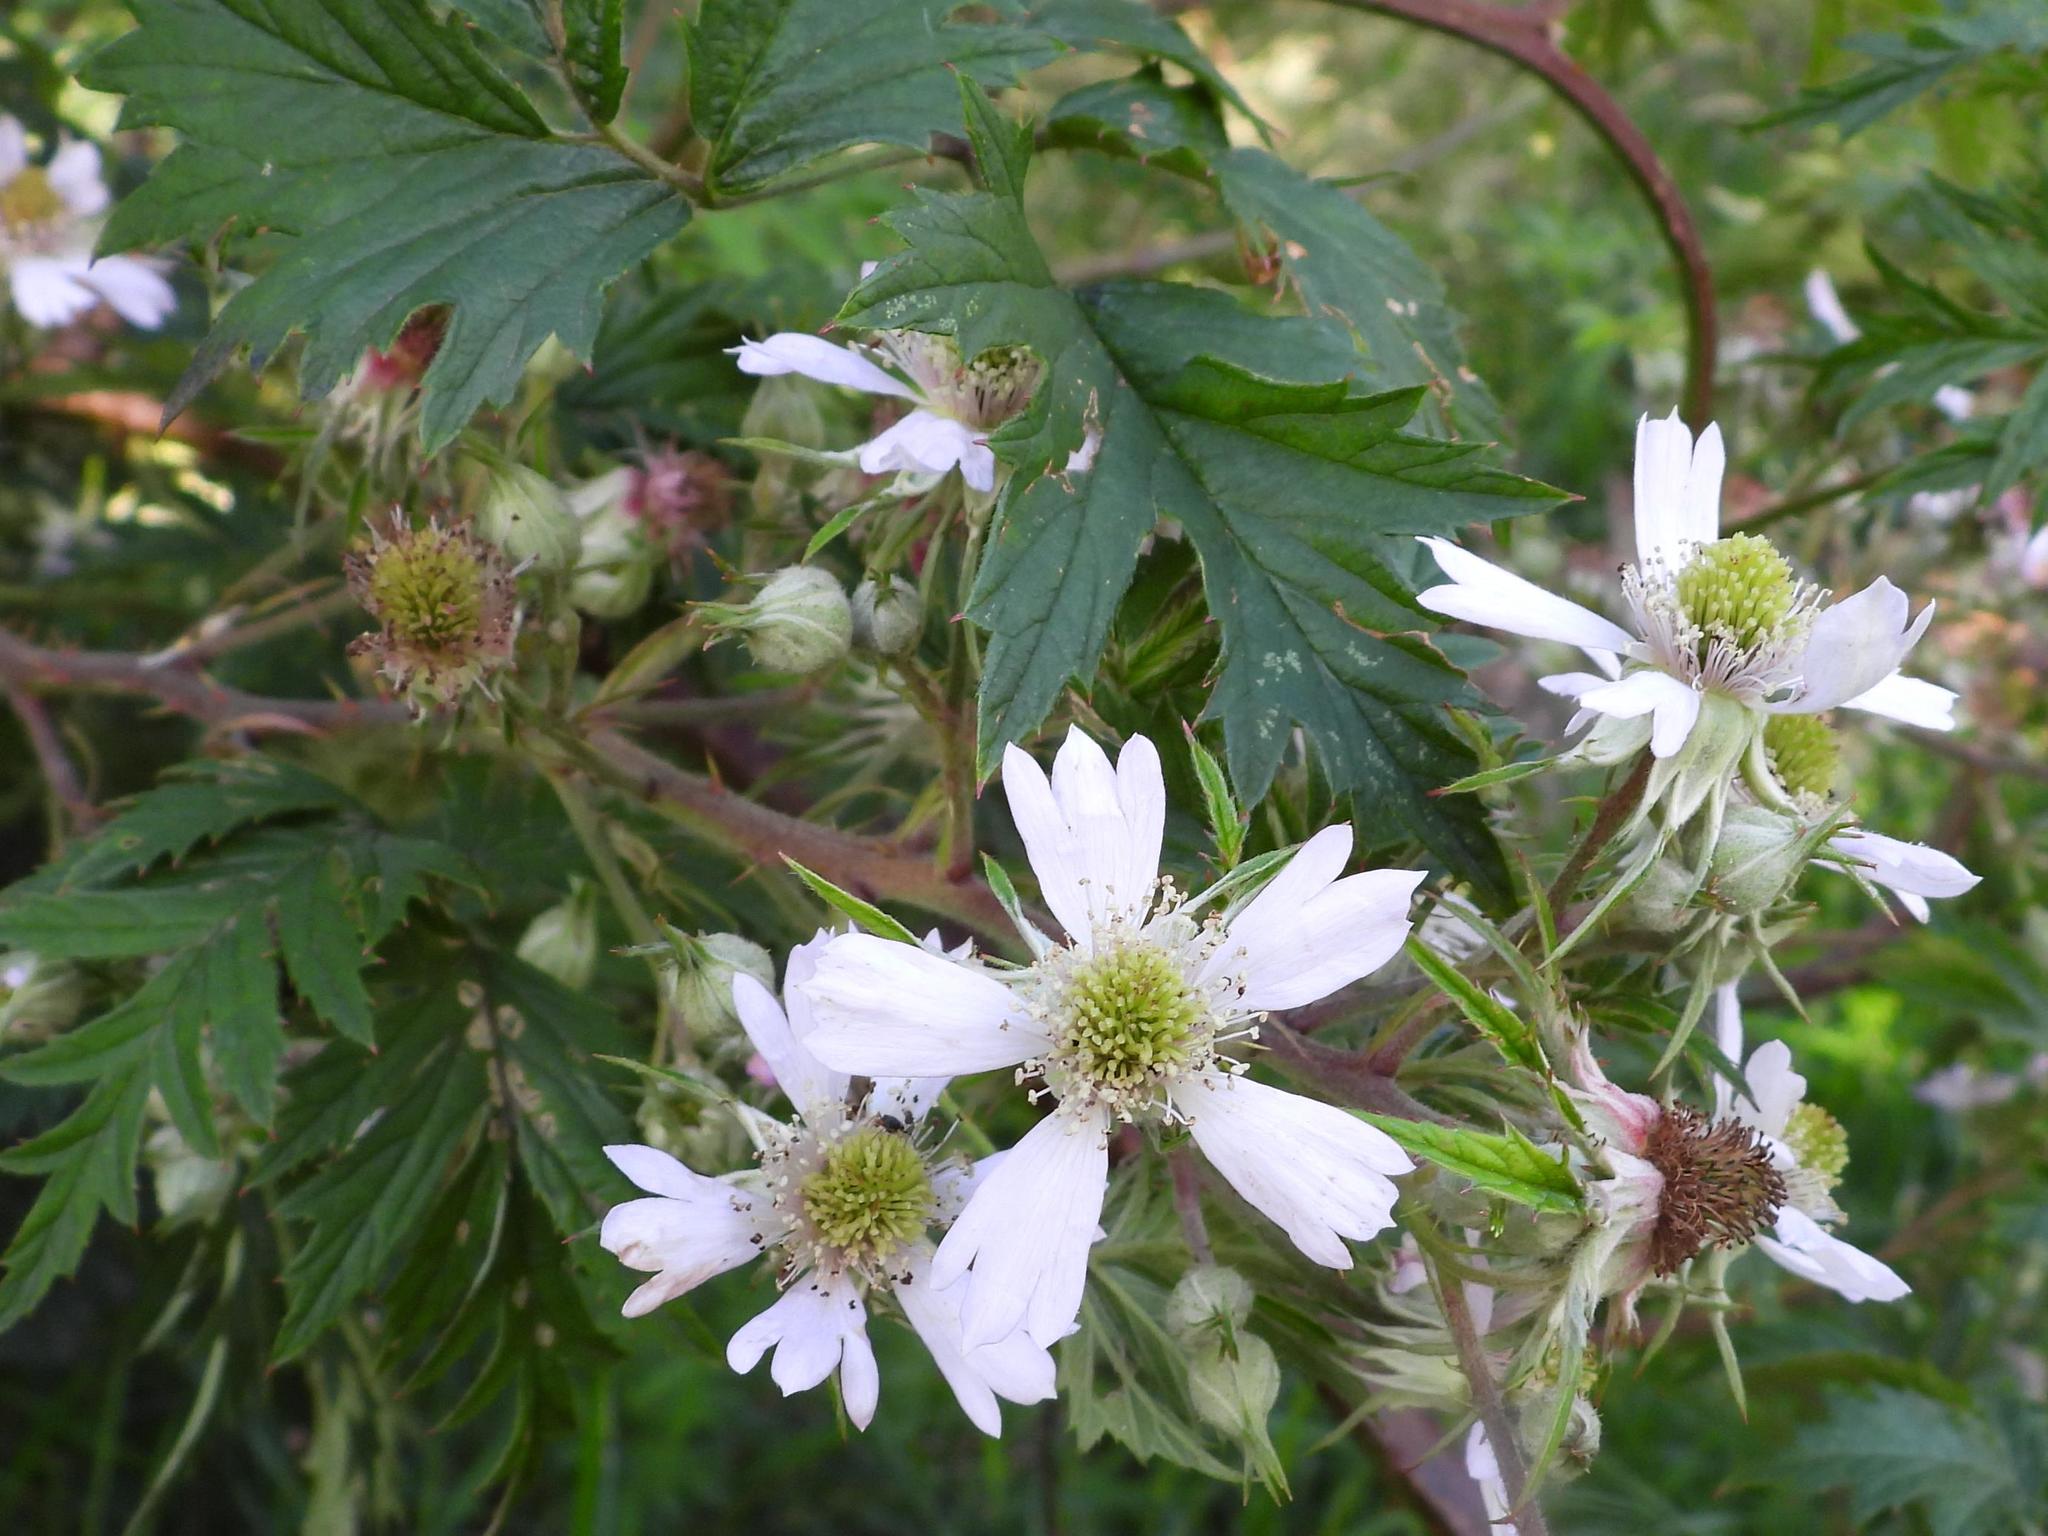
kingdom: Plantae
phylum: Tracheophyta
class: Magnoliopsida
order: Rosales
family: Rosaceae
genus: Rubus
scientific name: Rubus laciniatus
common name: Evergreen blackberry
